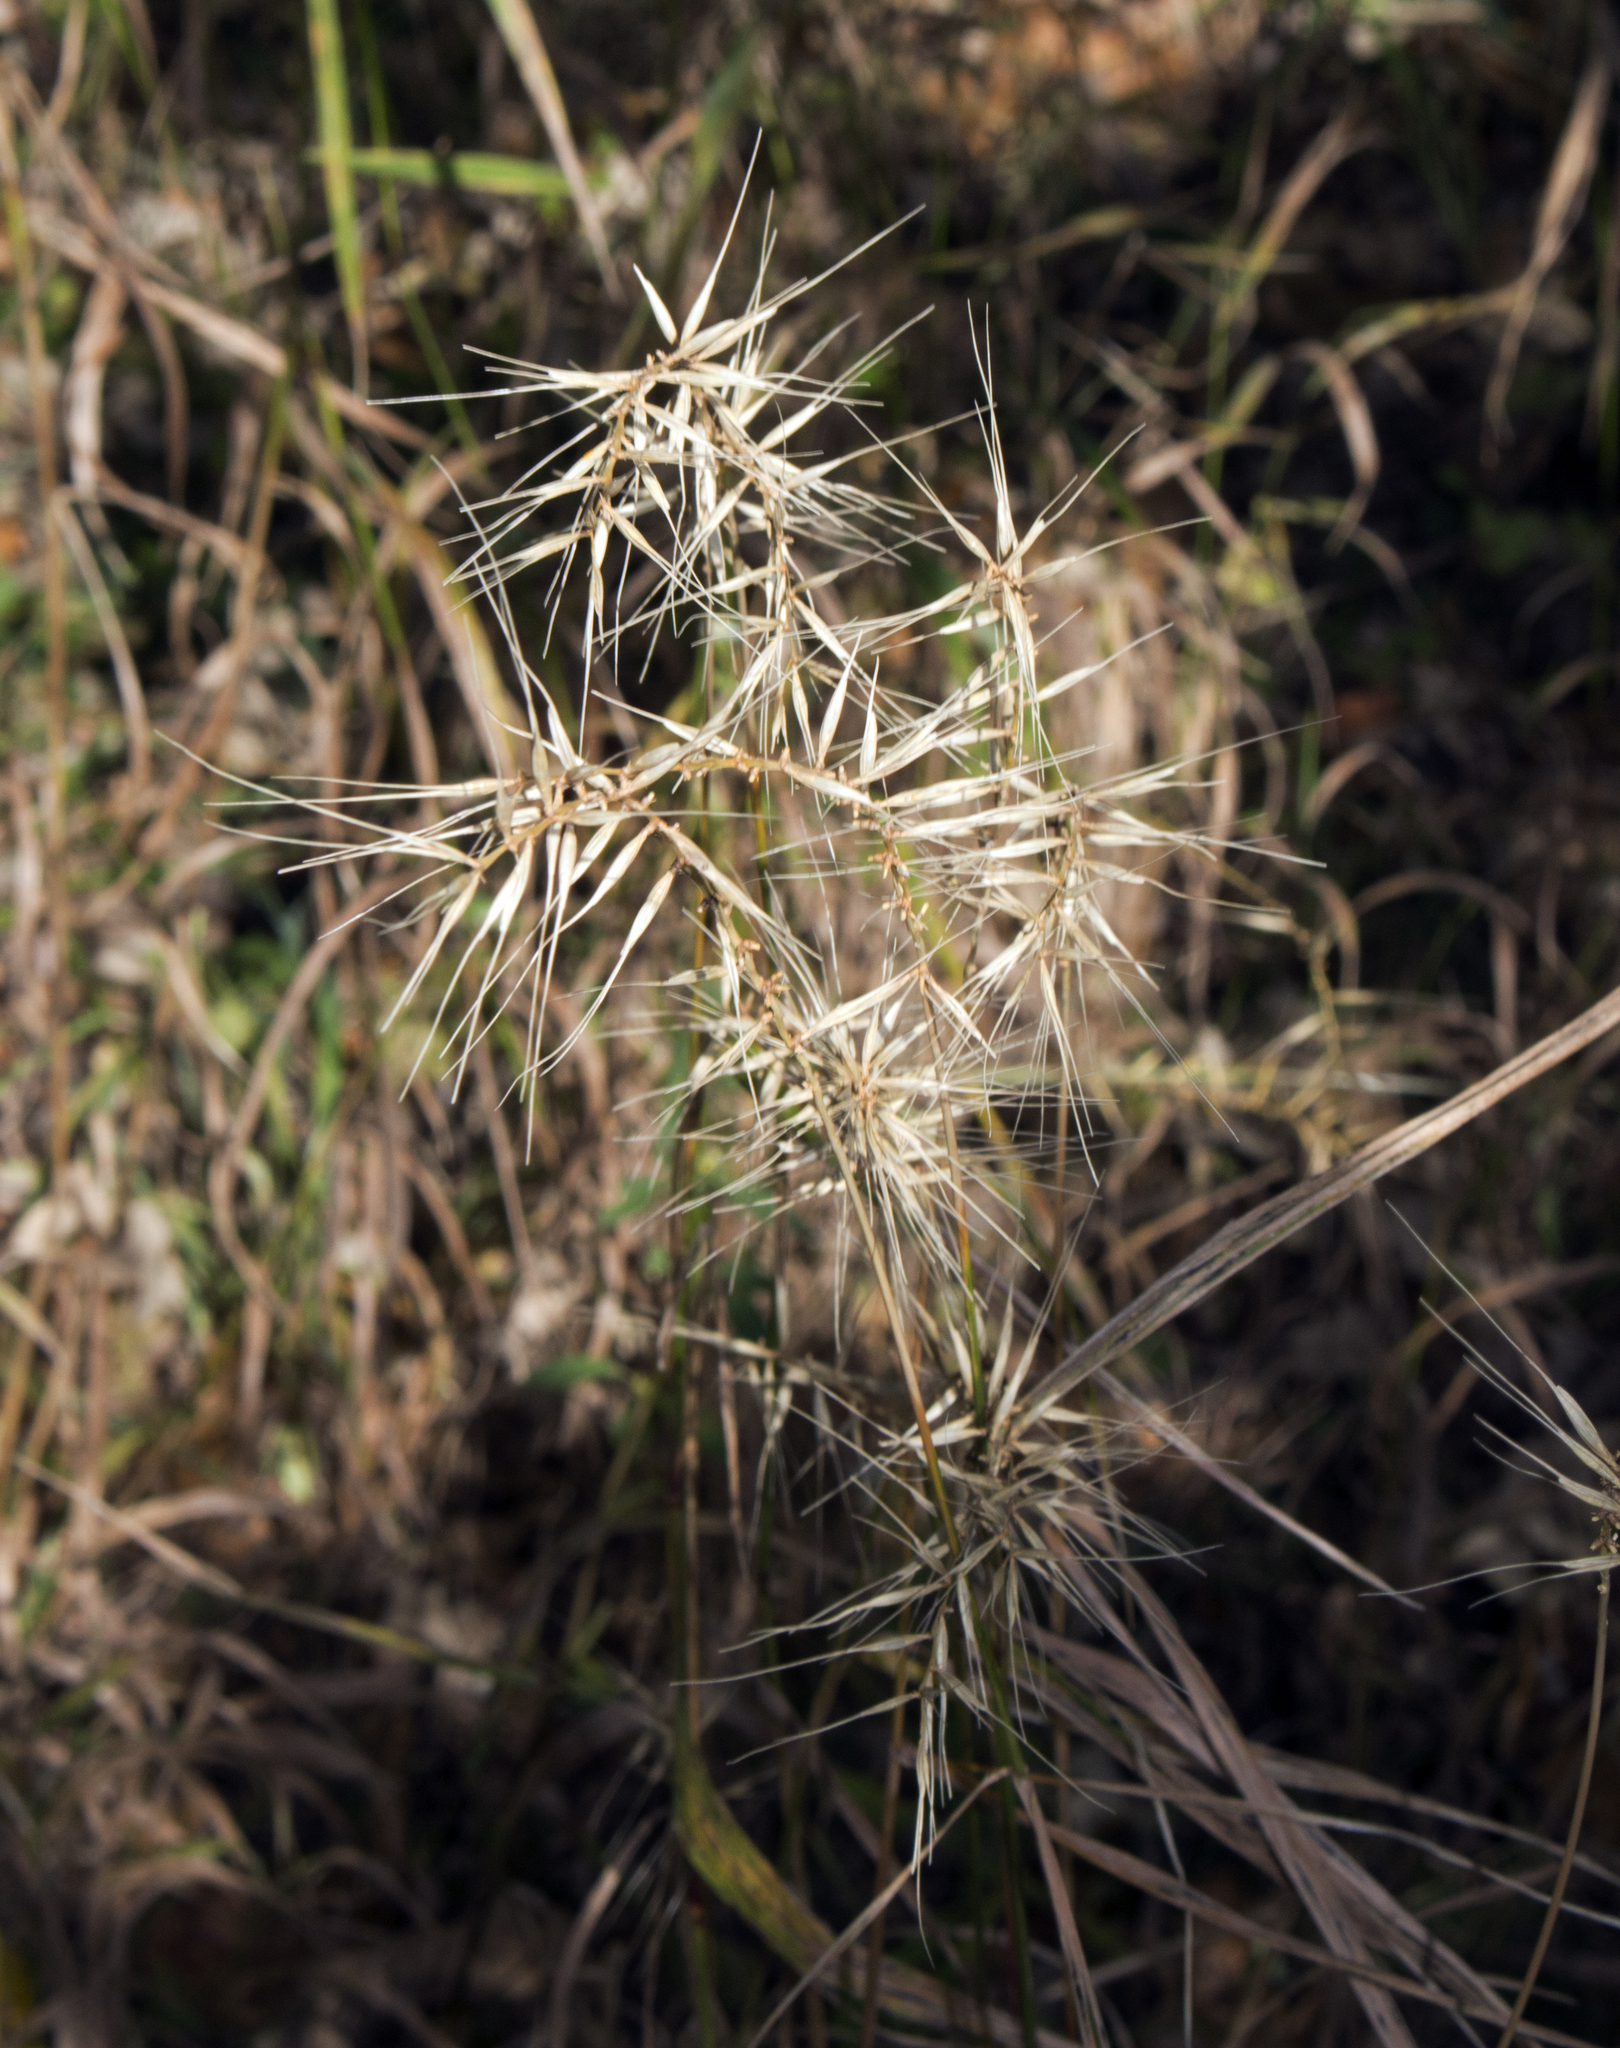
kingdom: Plantae
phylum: Tracheophyta
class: Liliopsida
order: Poales
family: Poaceae
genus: Elymus
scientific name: Elymus hystrix
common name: Bottlebrush grass
